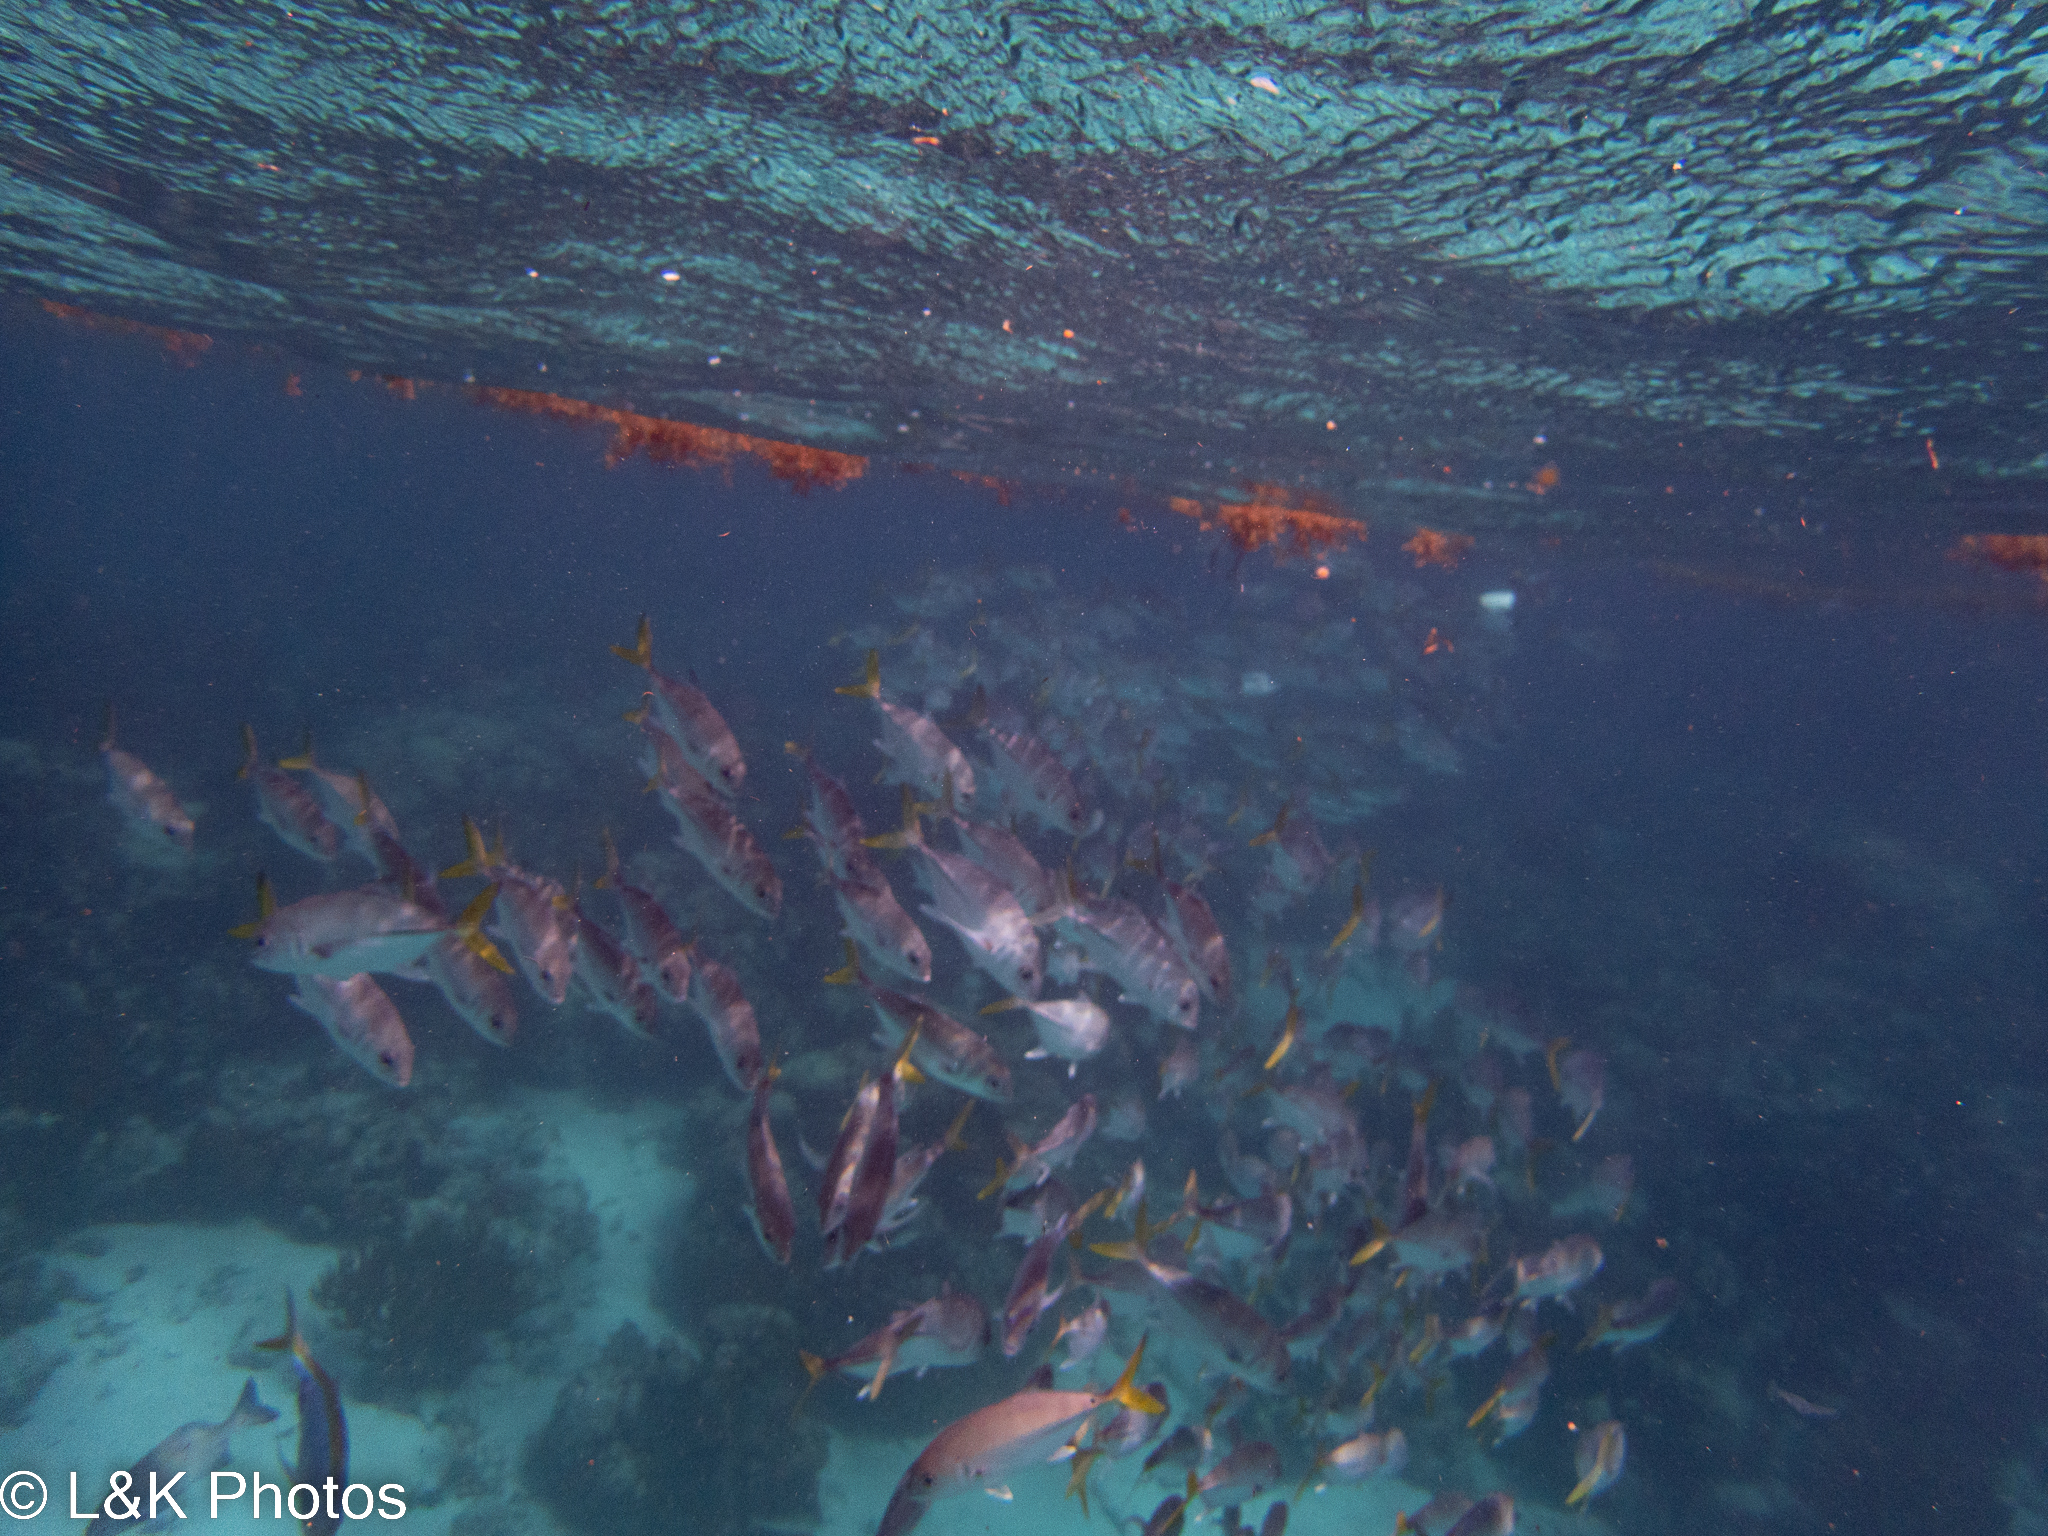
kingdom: Animalia
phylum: Chordata
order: Perciformes
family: Carangidae
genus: Caranx
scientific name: Caranx latus
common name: Horse eye jack
